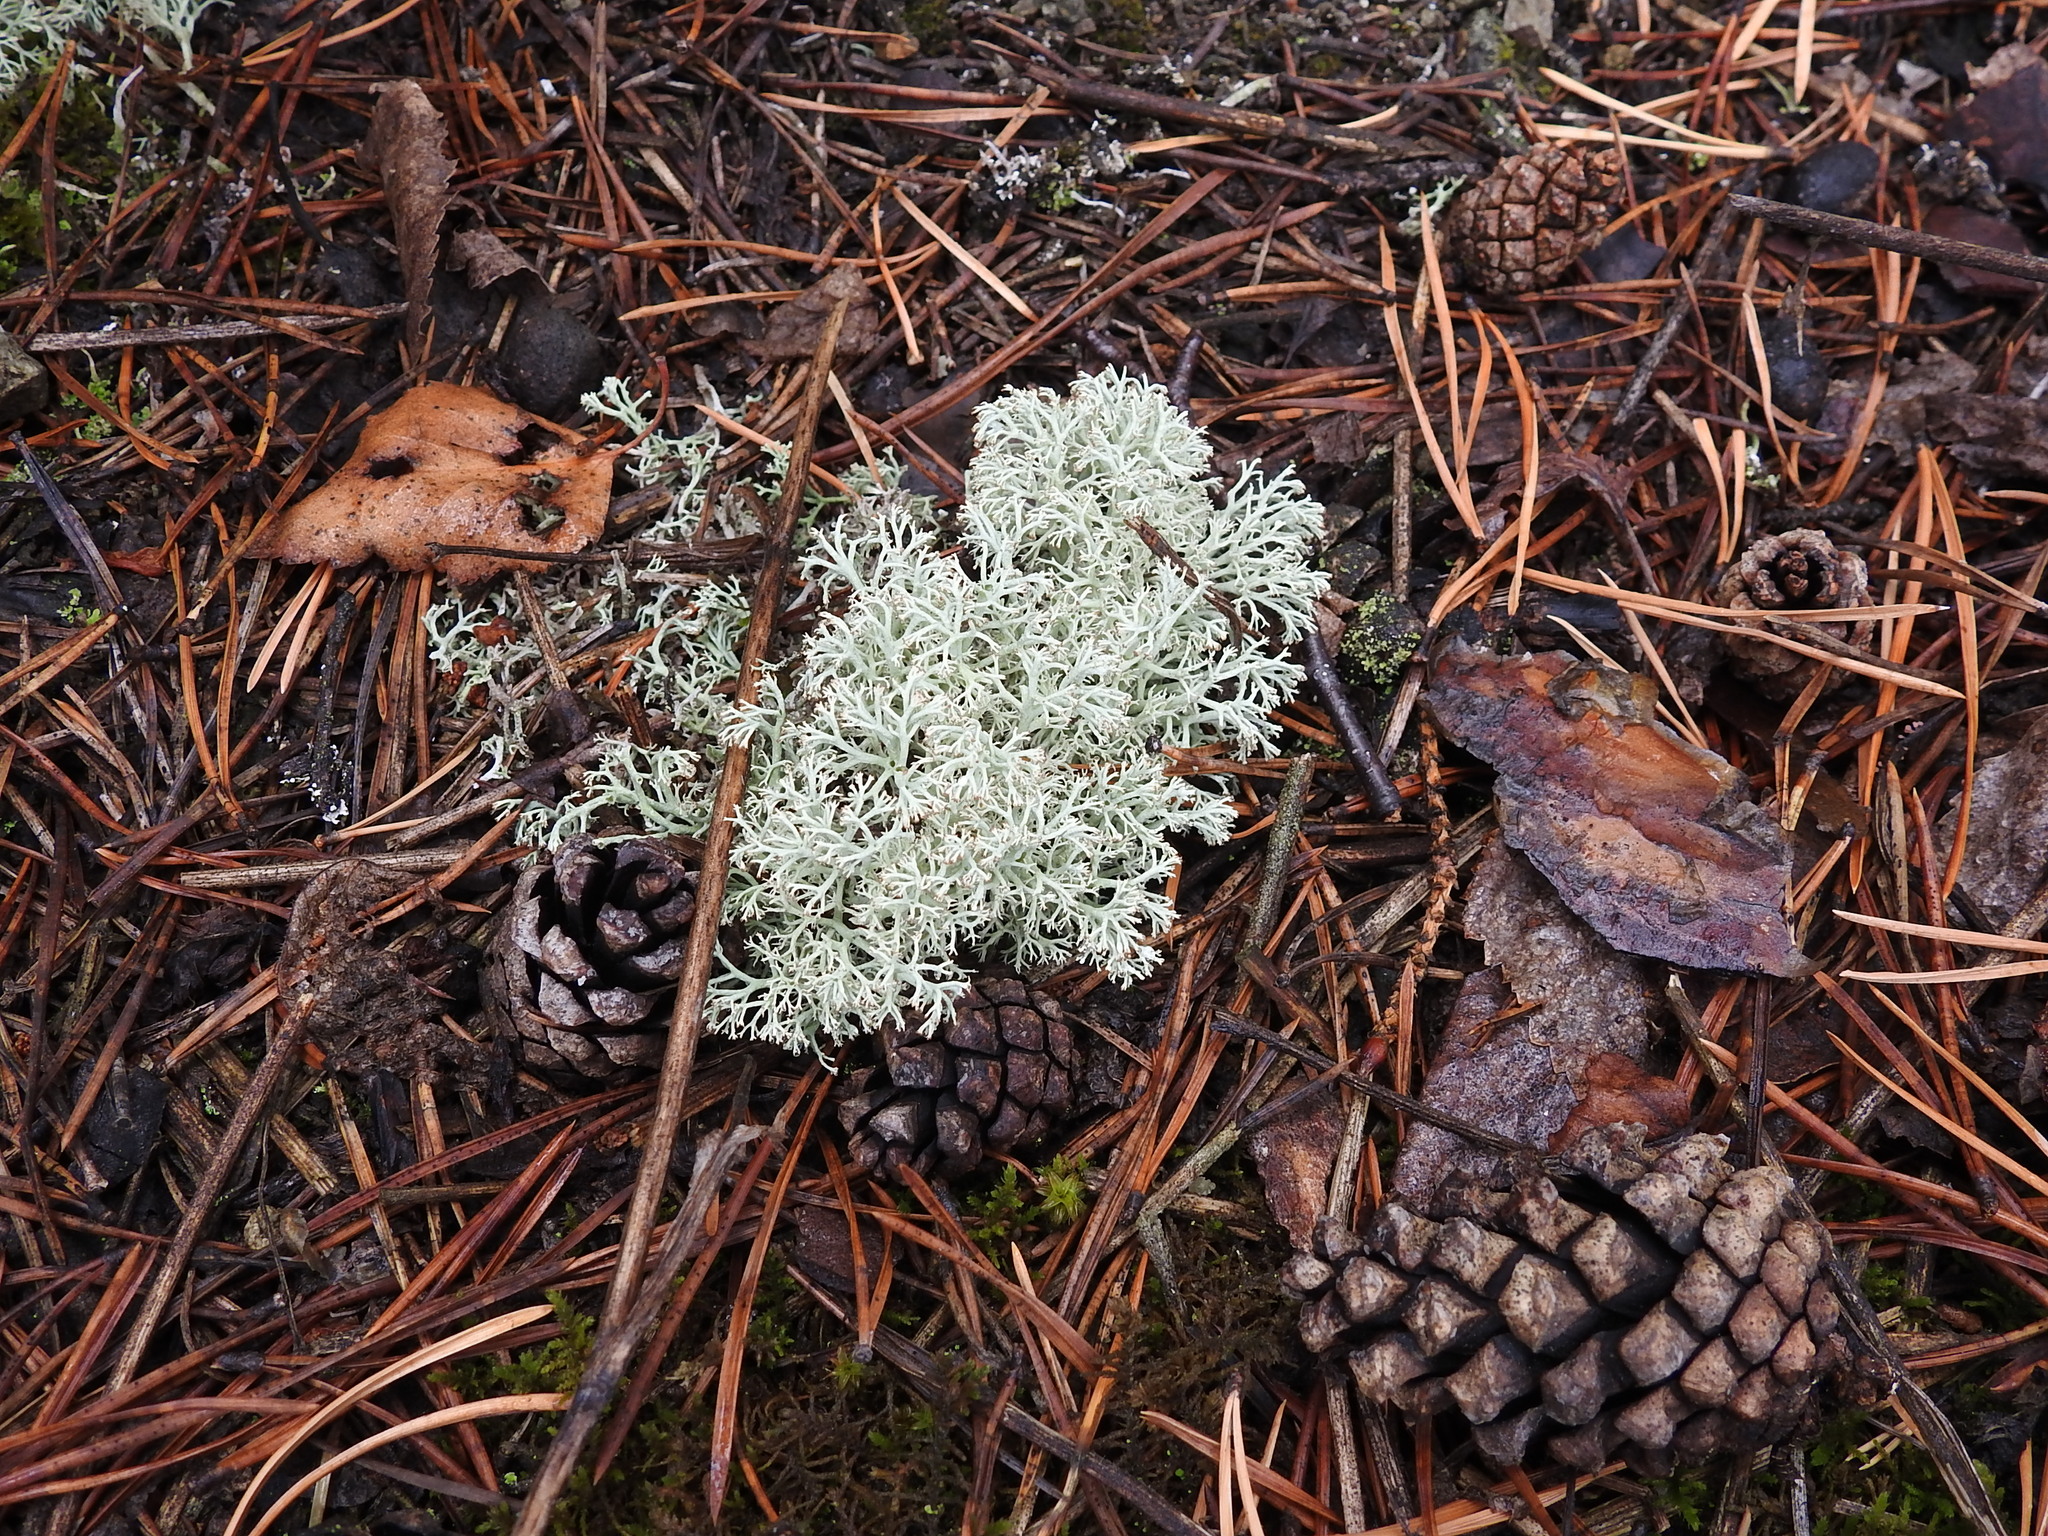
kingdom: Fungi
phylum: Ascomycota
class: Lecanoromycetes
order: Lecanorales
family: Cladoniaceae
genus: Cladonia
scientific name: Cladonia arbuscula
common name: Reindeer lichen
